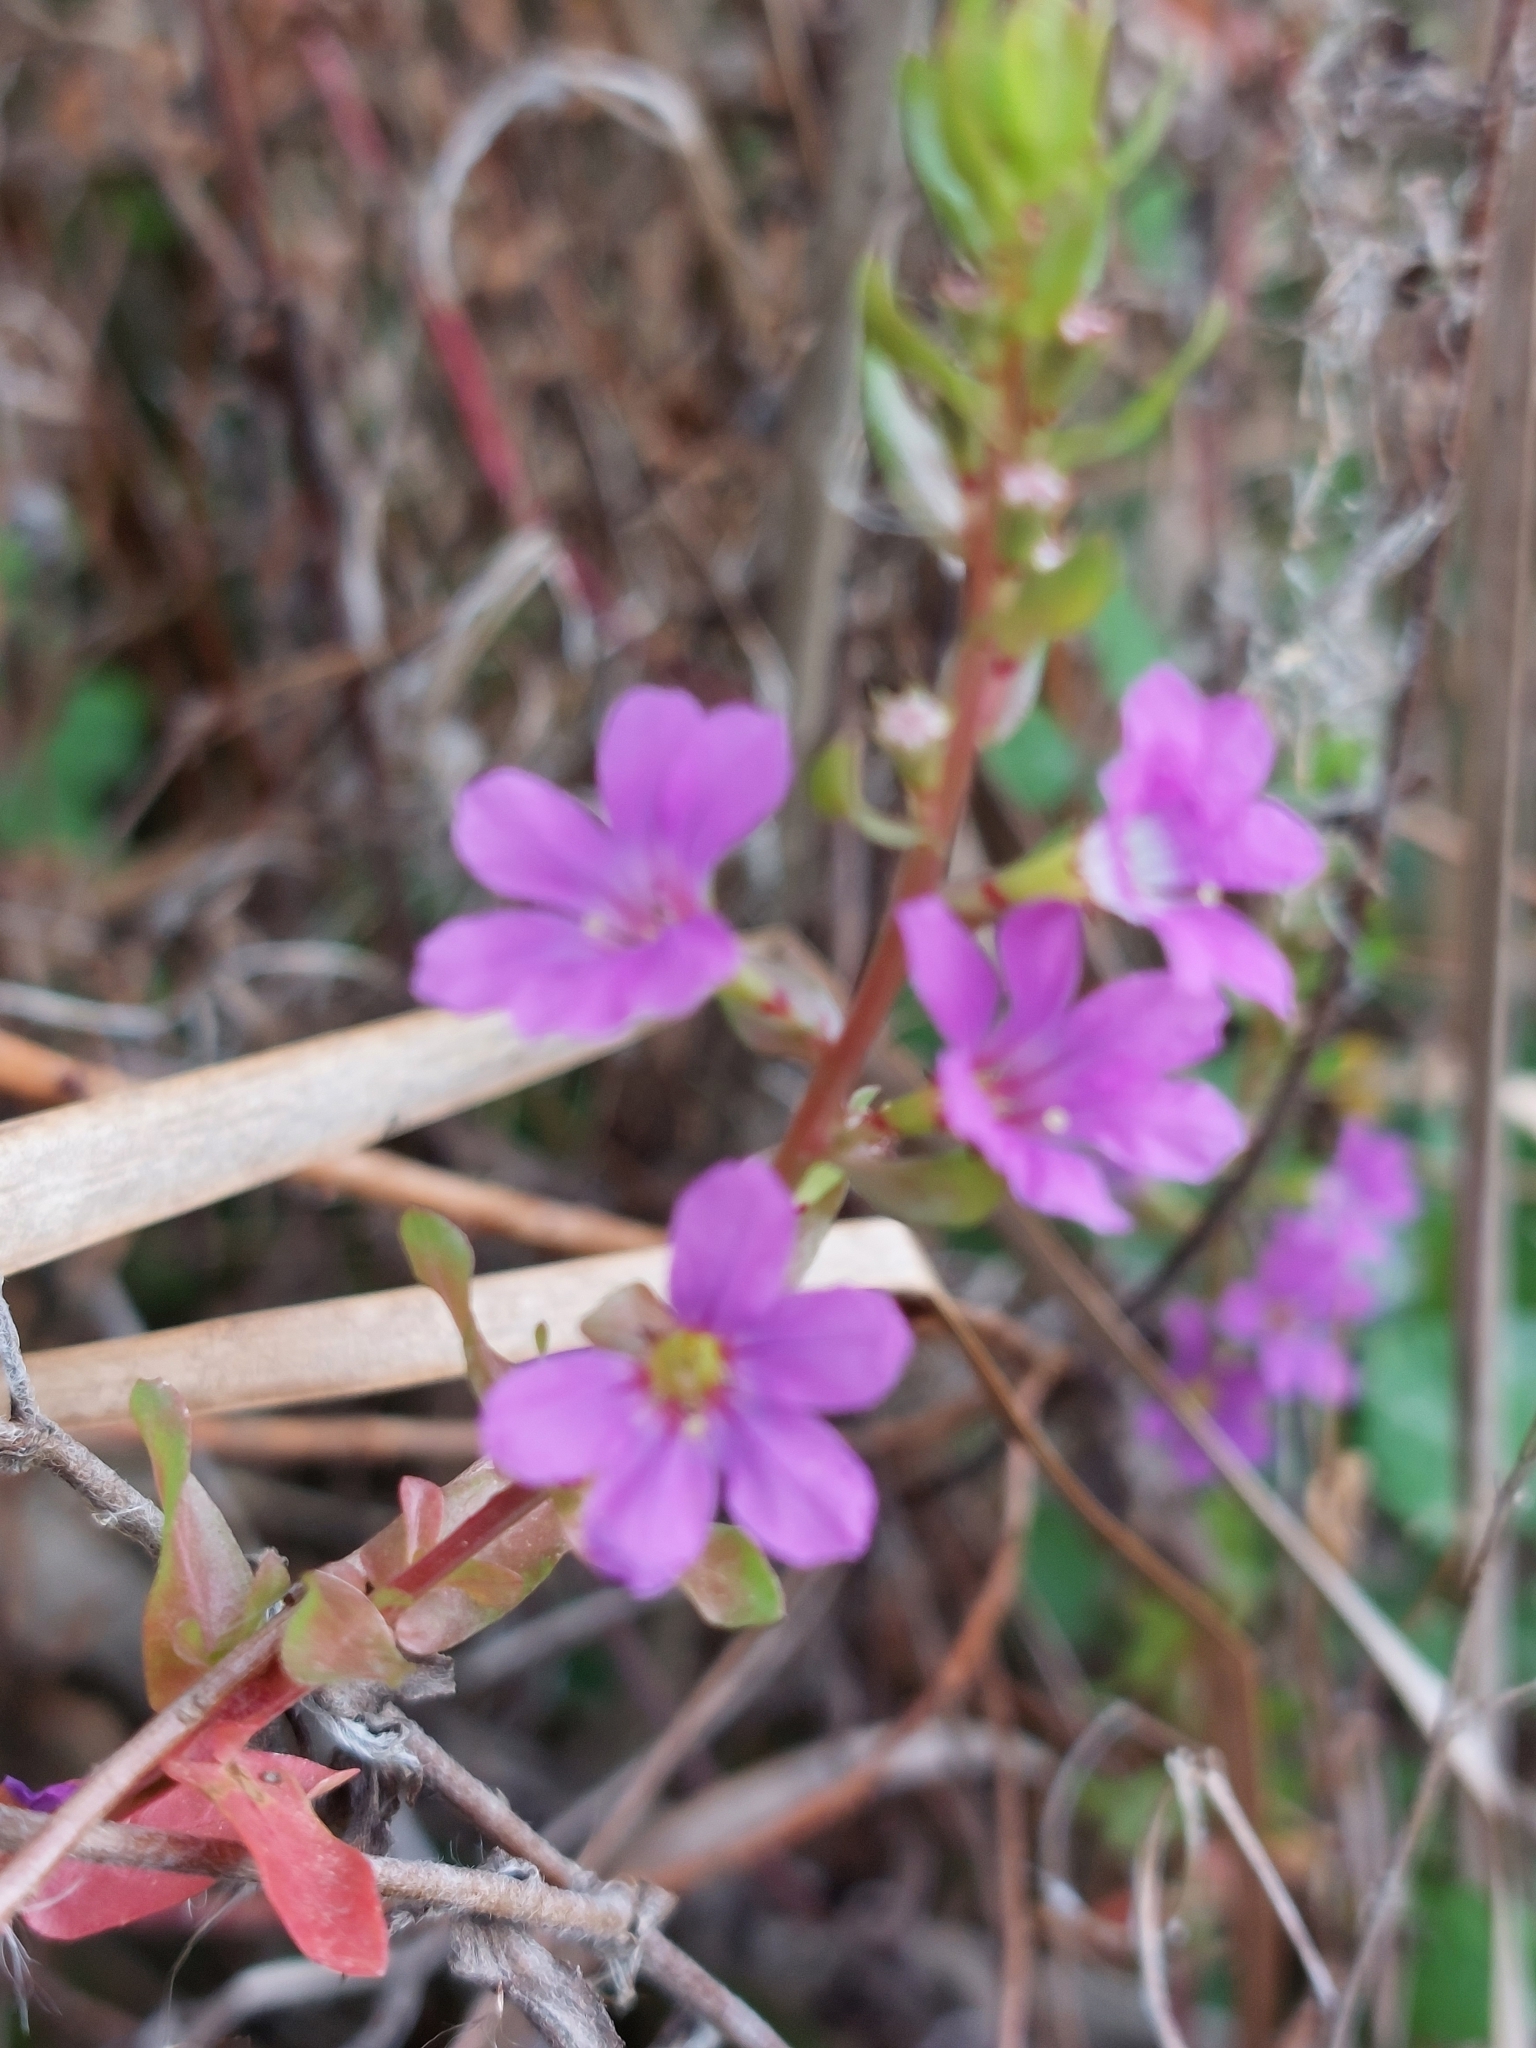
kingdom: Plantae
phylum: Tracheophyta
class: Magnoliopsida
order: Myrtales
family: Lythraceae
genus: Lythrum
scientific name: Lythrum junceum
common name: False grass-poly
